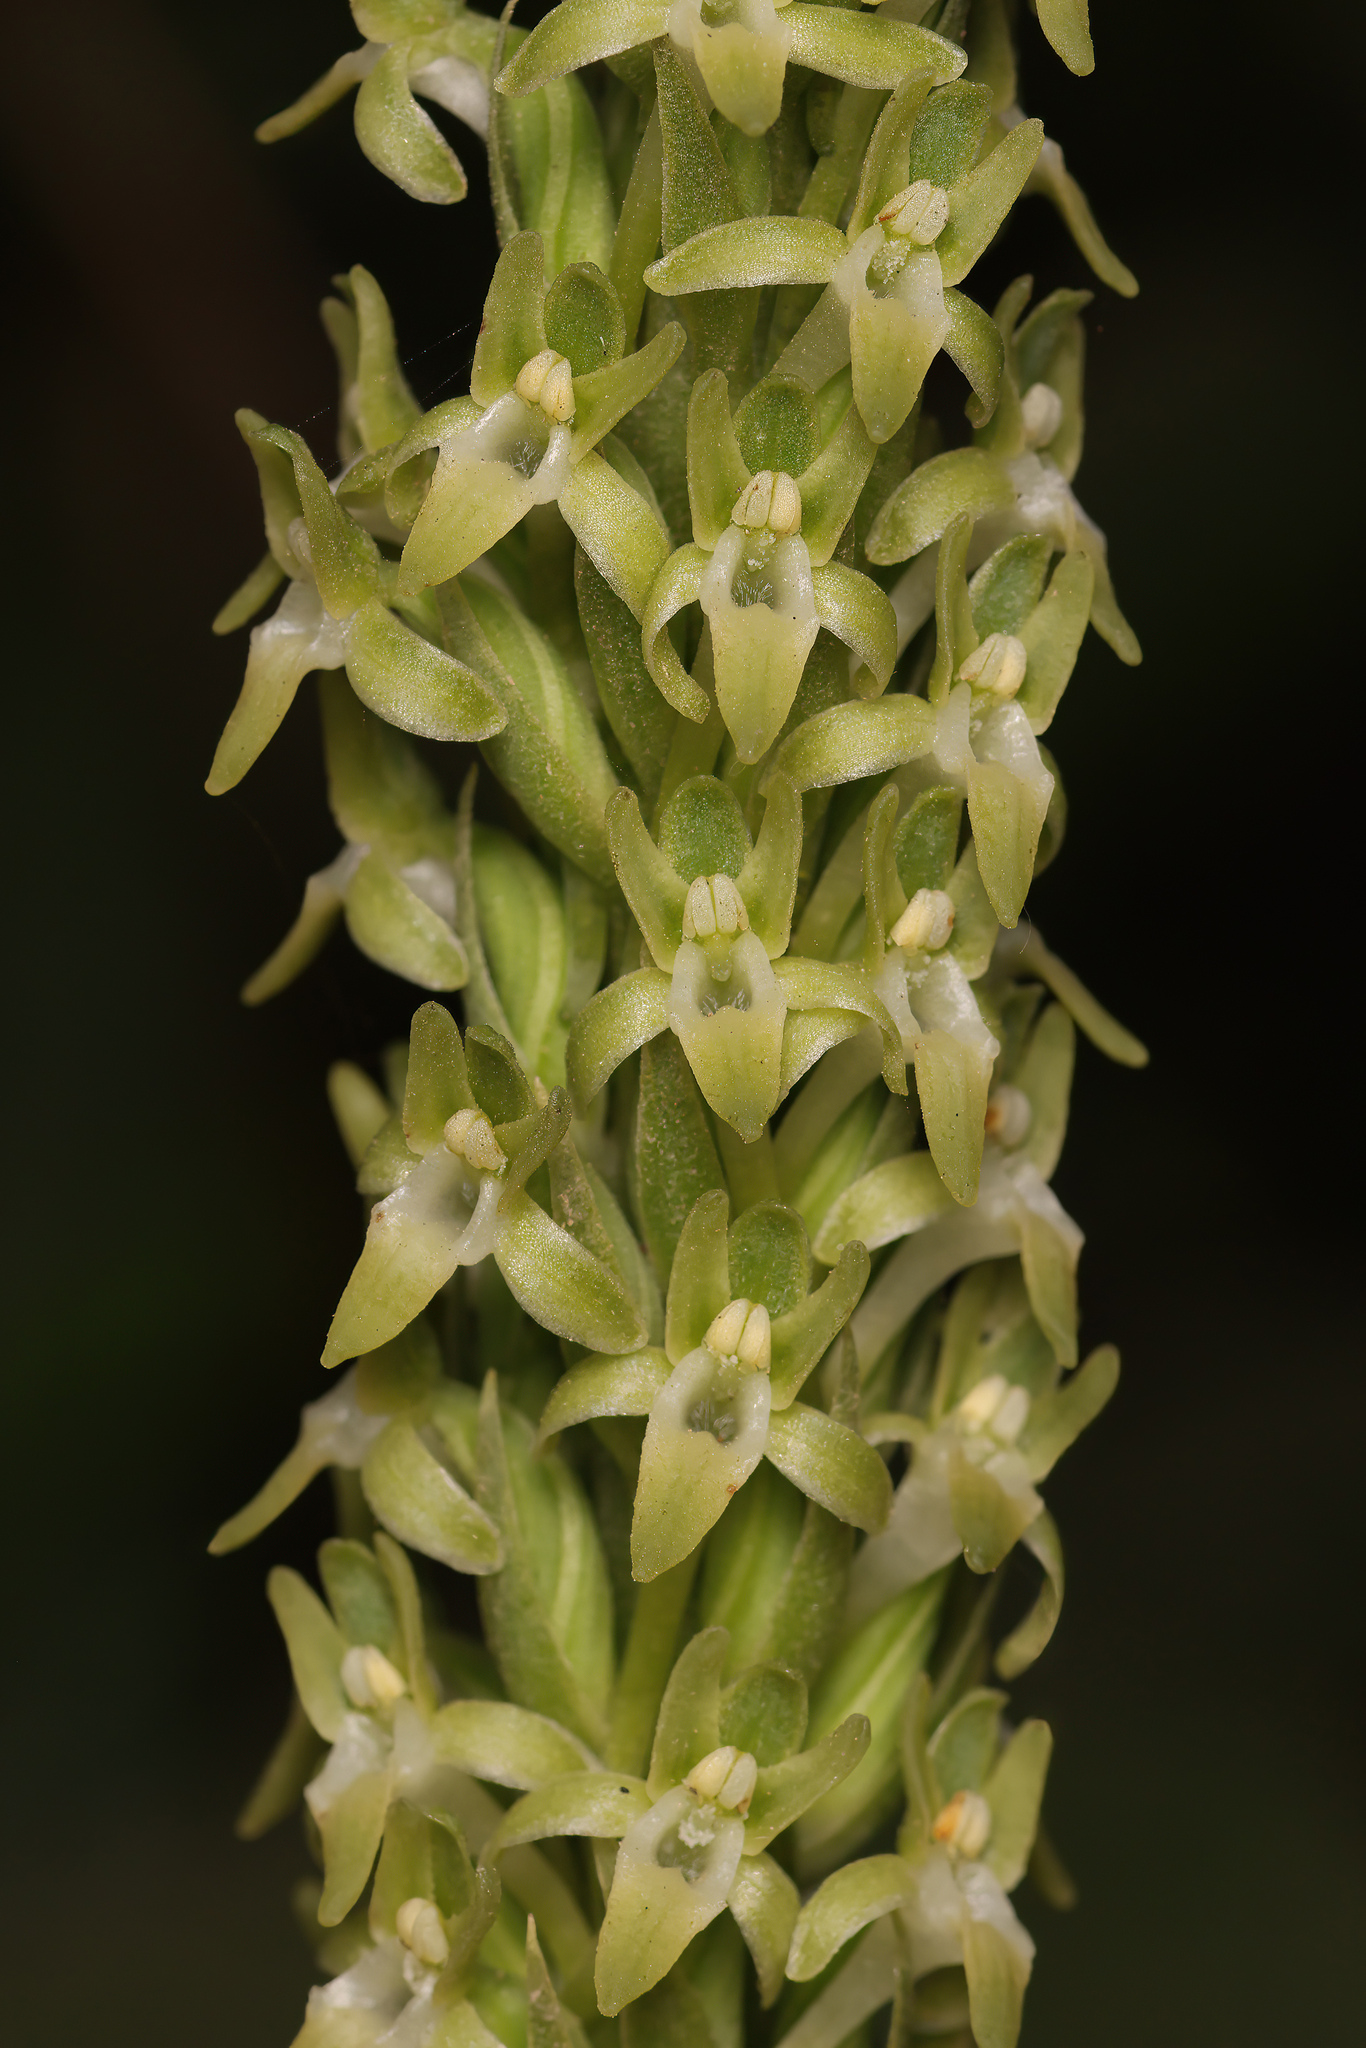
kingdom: Plantae
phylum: Tracheophyta
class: Liliopsida
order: Asparagales
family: Orchidaceae
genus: Platanthera
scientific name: Platanthera elongata
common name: Dense-flowered rein orchid
